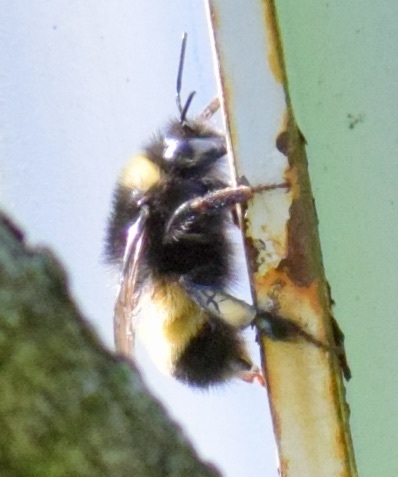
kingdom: Animalia
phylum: Arthropoda
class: Insecta
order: Hymenoptera
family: Apidae
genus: Bombus
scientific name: Bombus terricola
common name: Yellow-banded bumble bee
